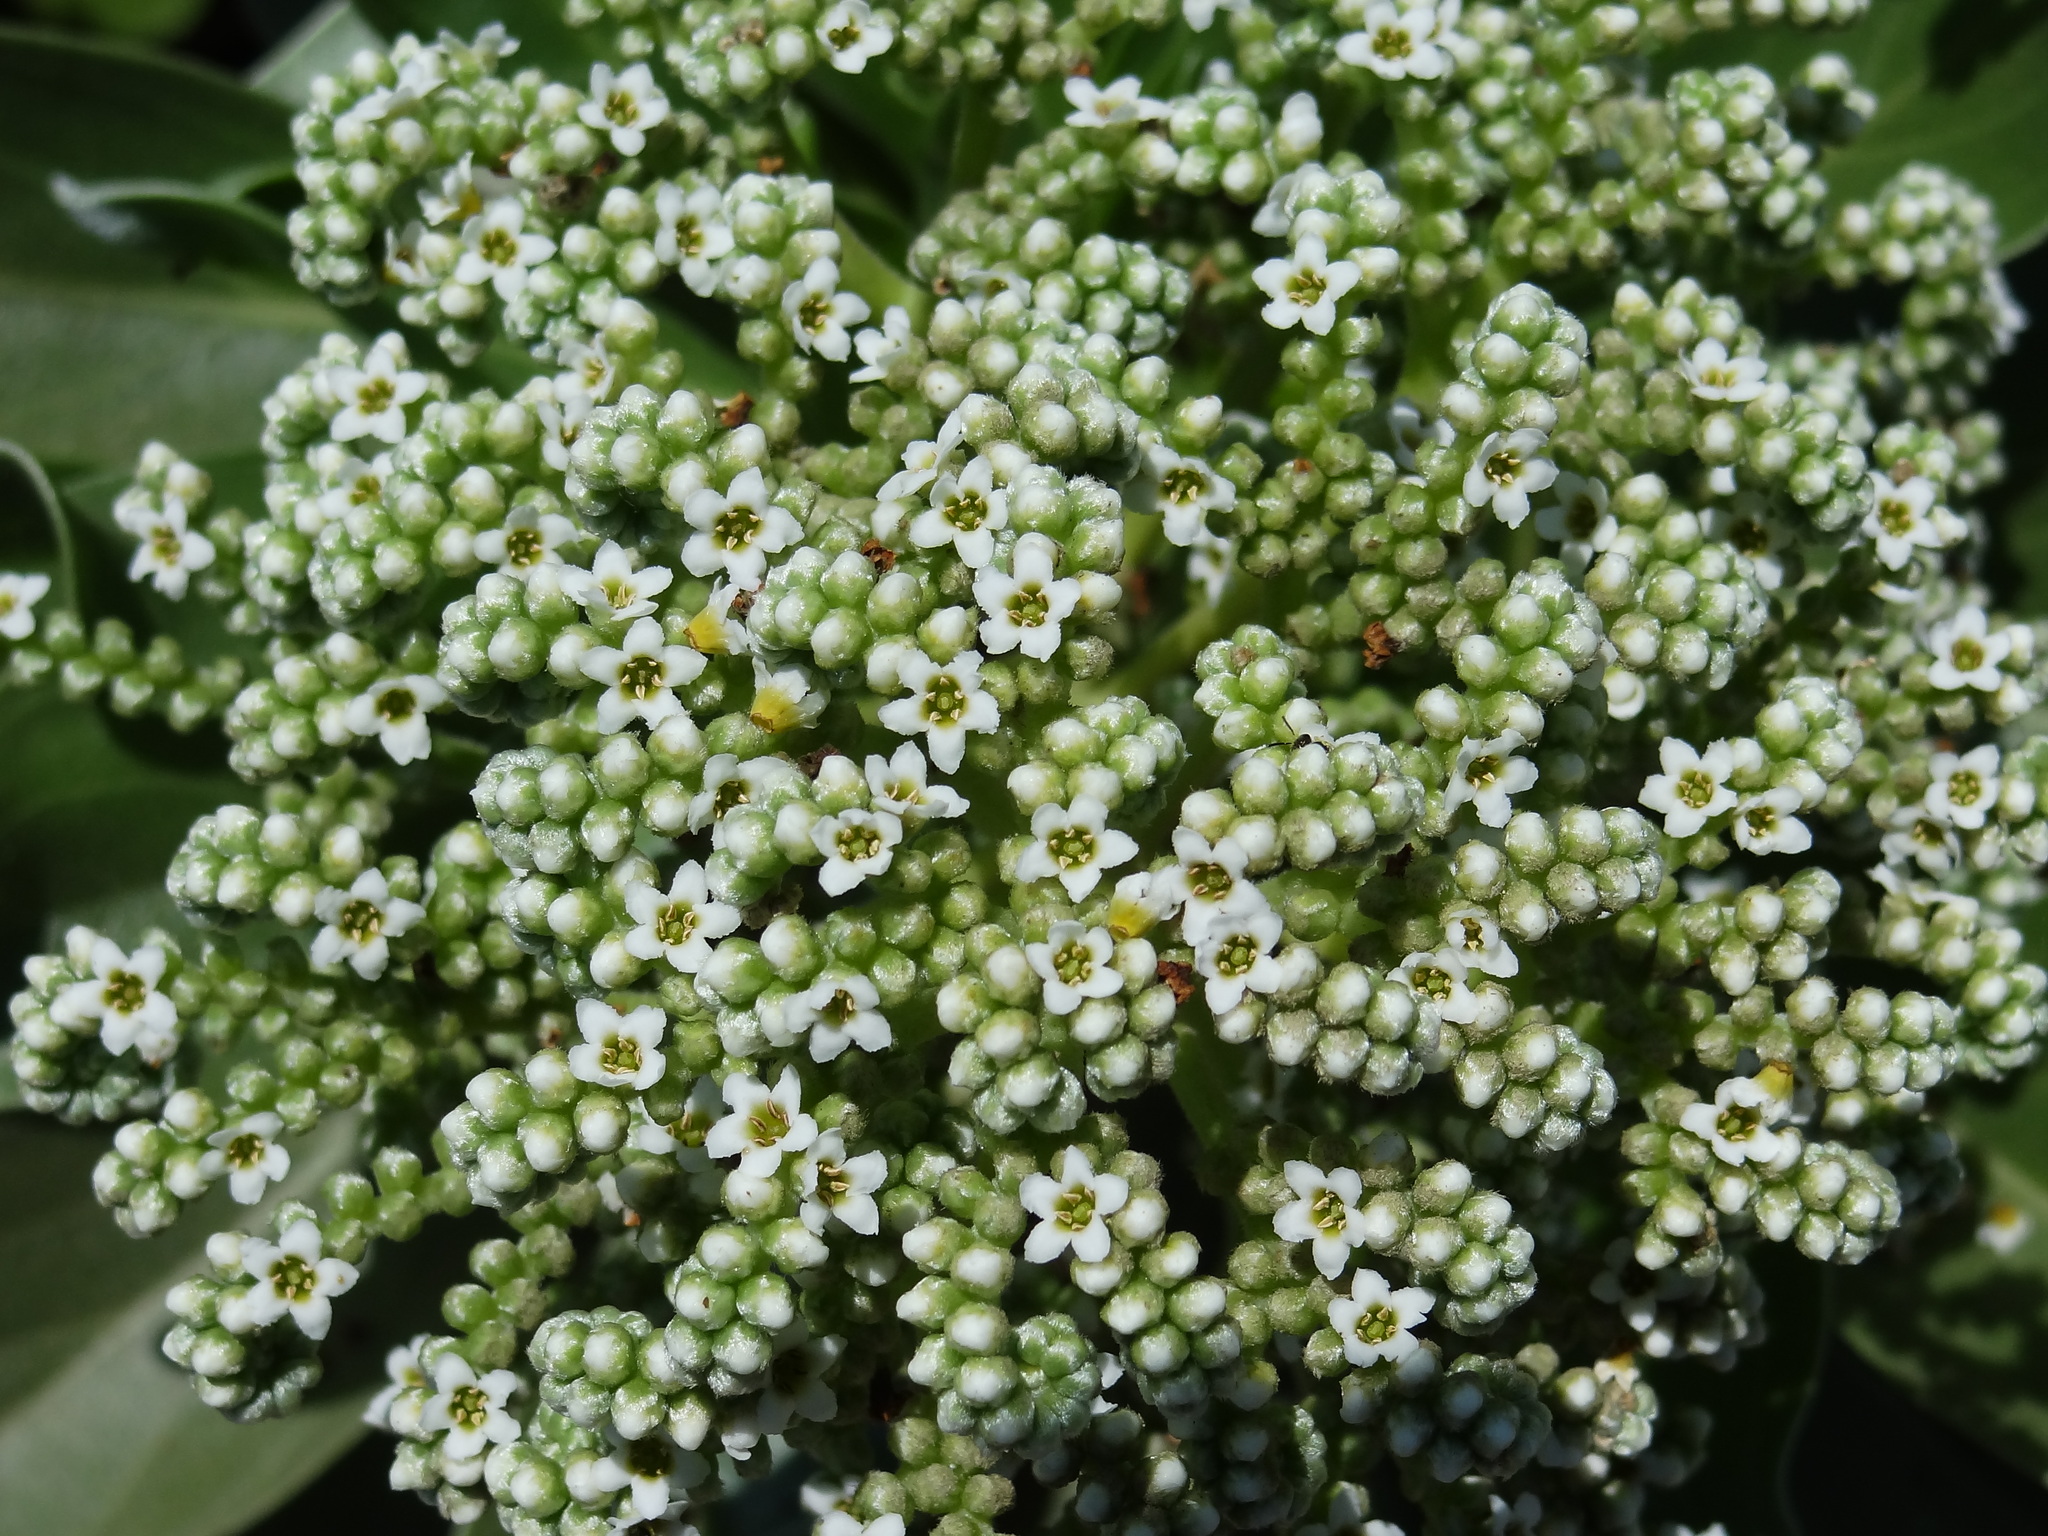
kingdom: Plantae
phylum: Tracheophyta
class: Magnoliopsida
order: Boraginales
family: Heliotropiaceae
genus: Heliotropium
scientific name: Heliotropium velutinum
